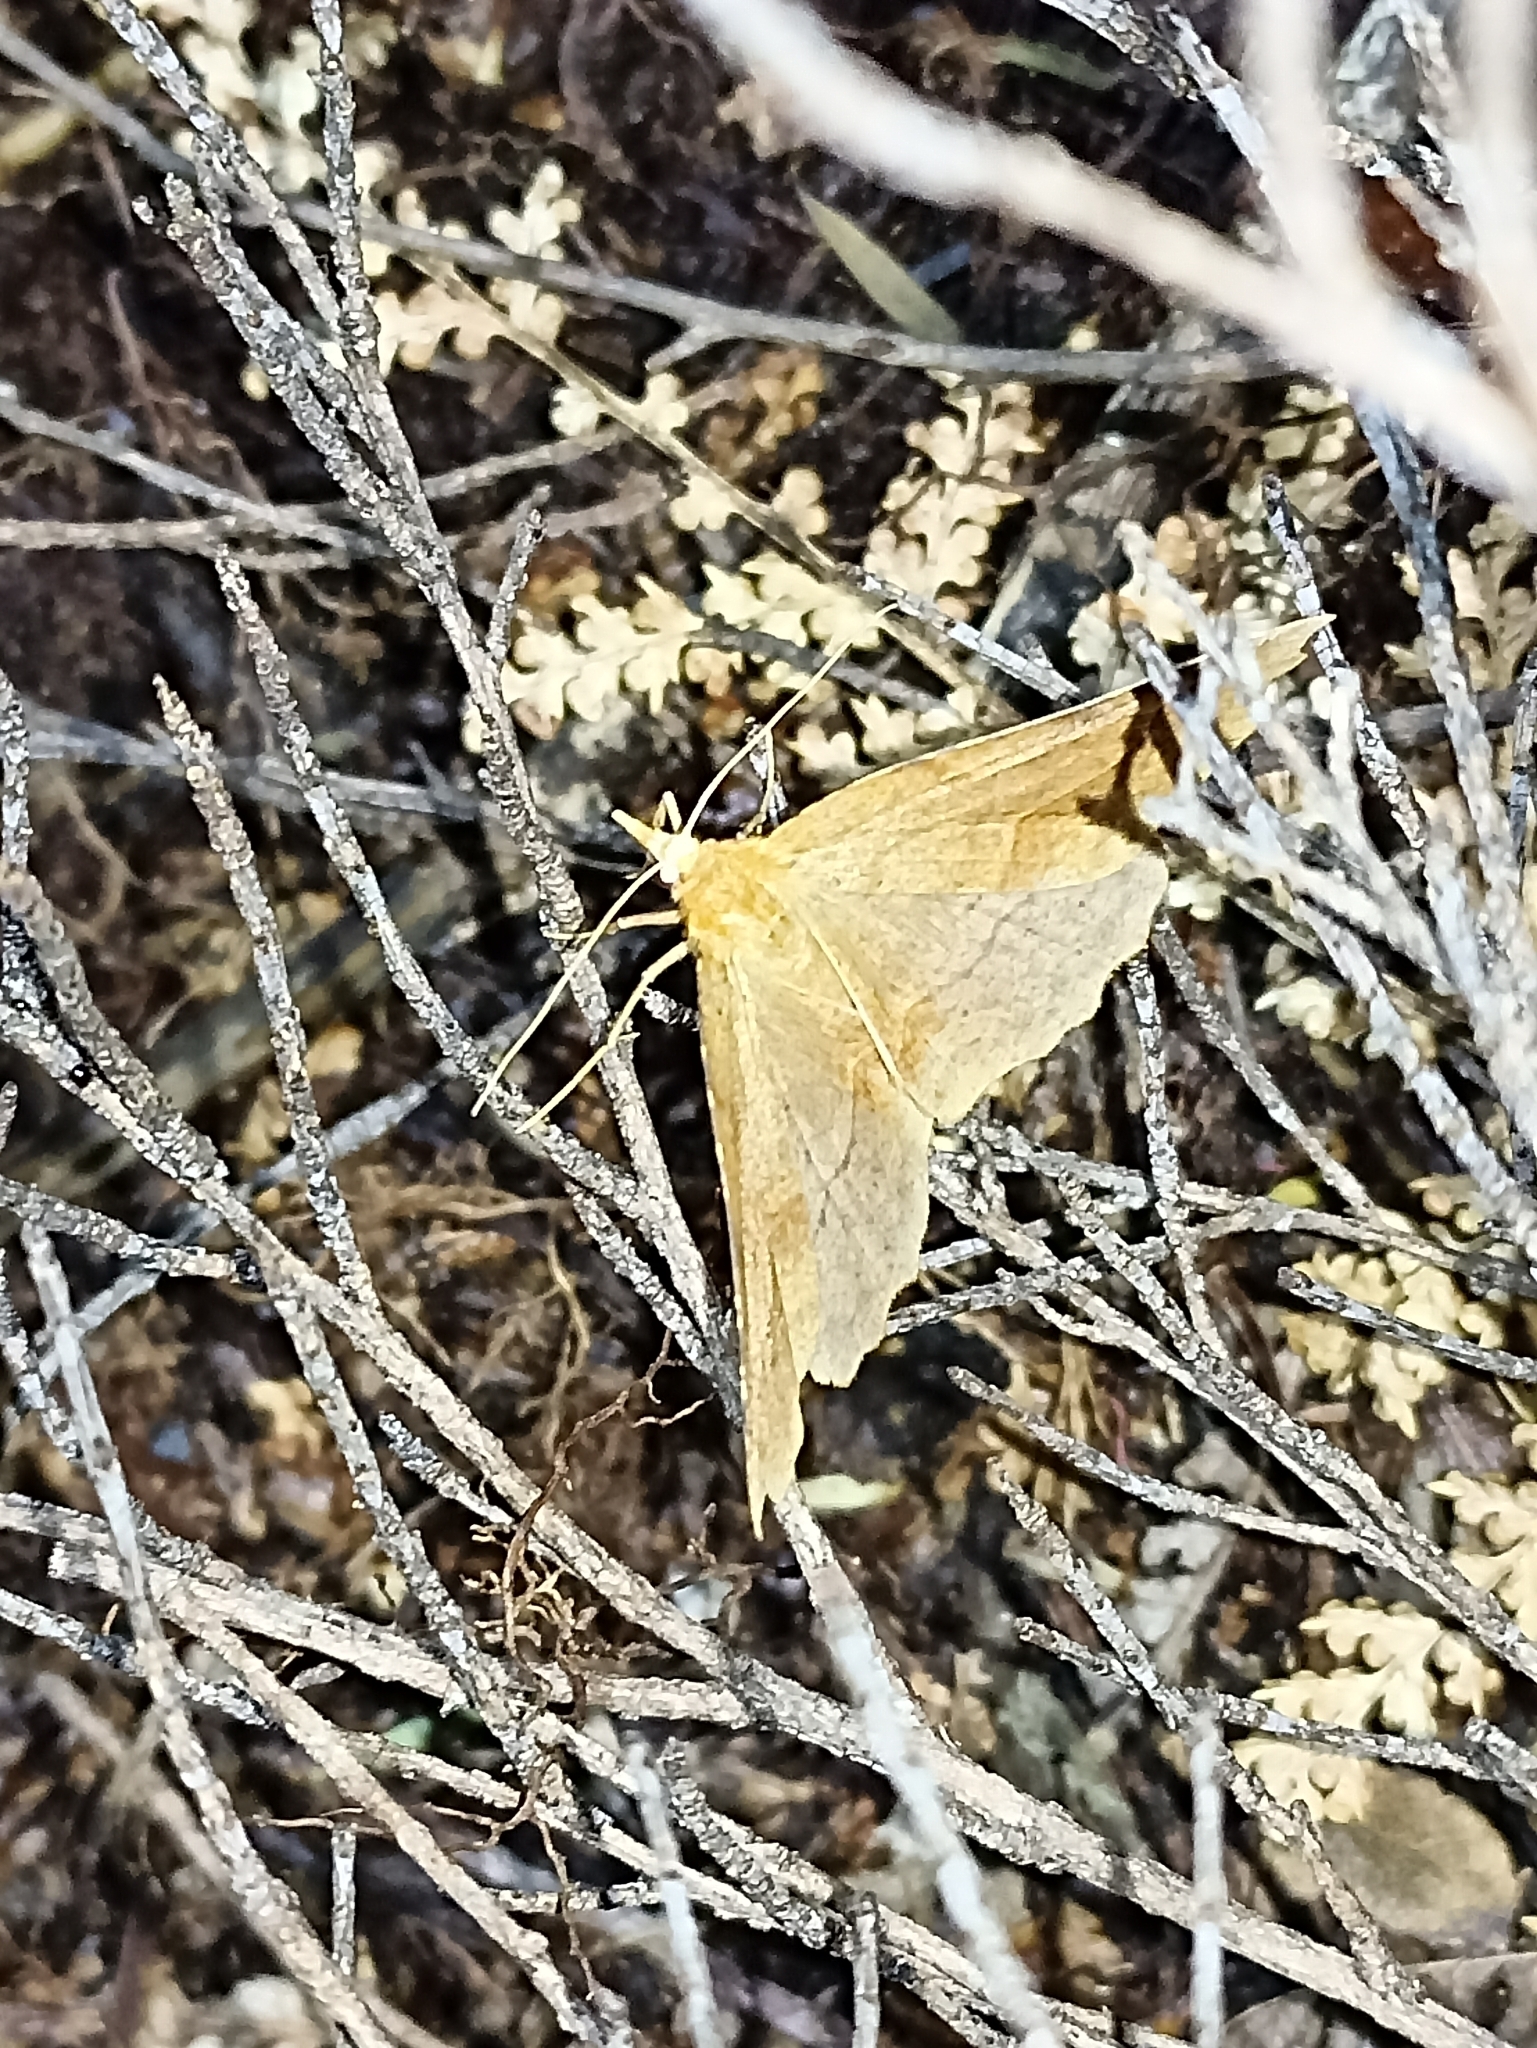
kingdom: Animalia
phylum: Arthropoda
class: Insecta
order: Lepidoptera
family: Geometridae
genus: Ischalis
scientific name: Ischalis variabilis
